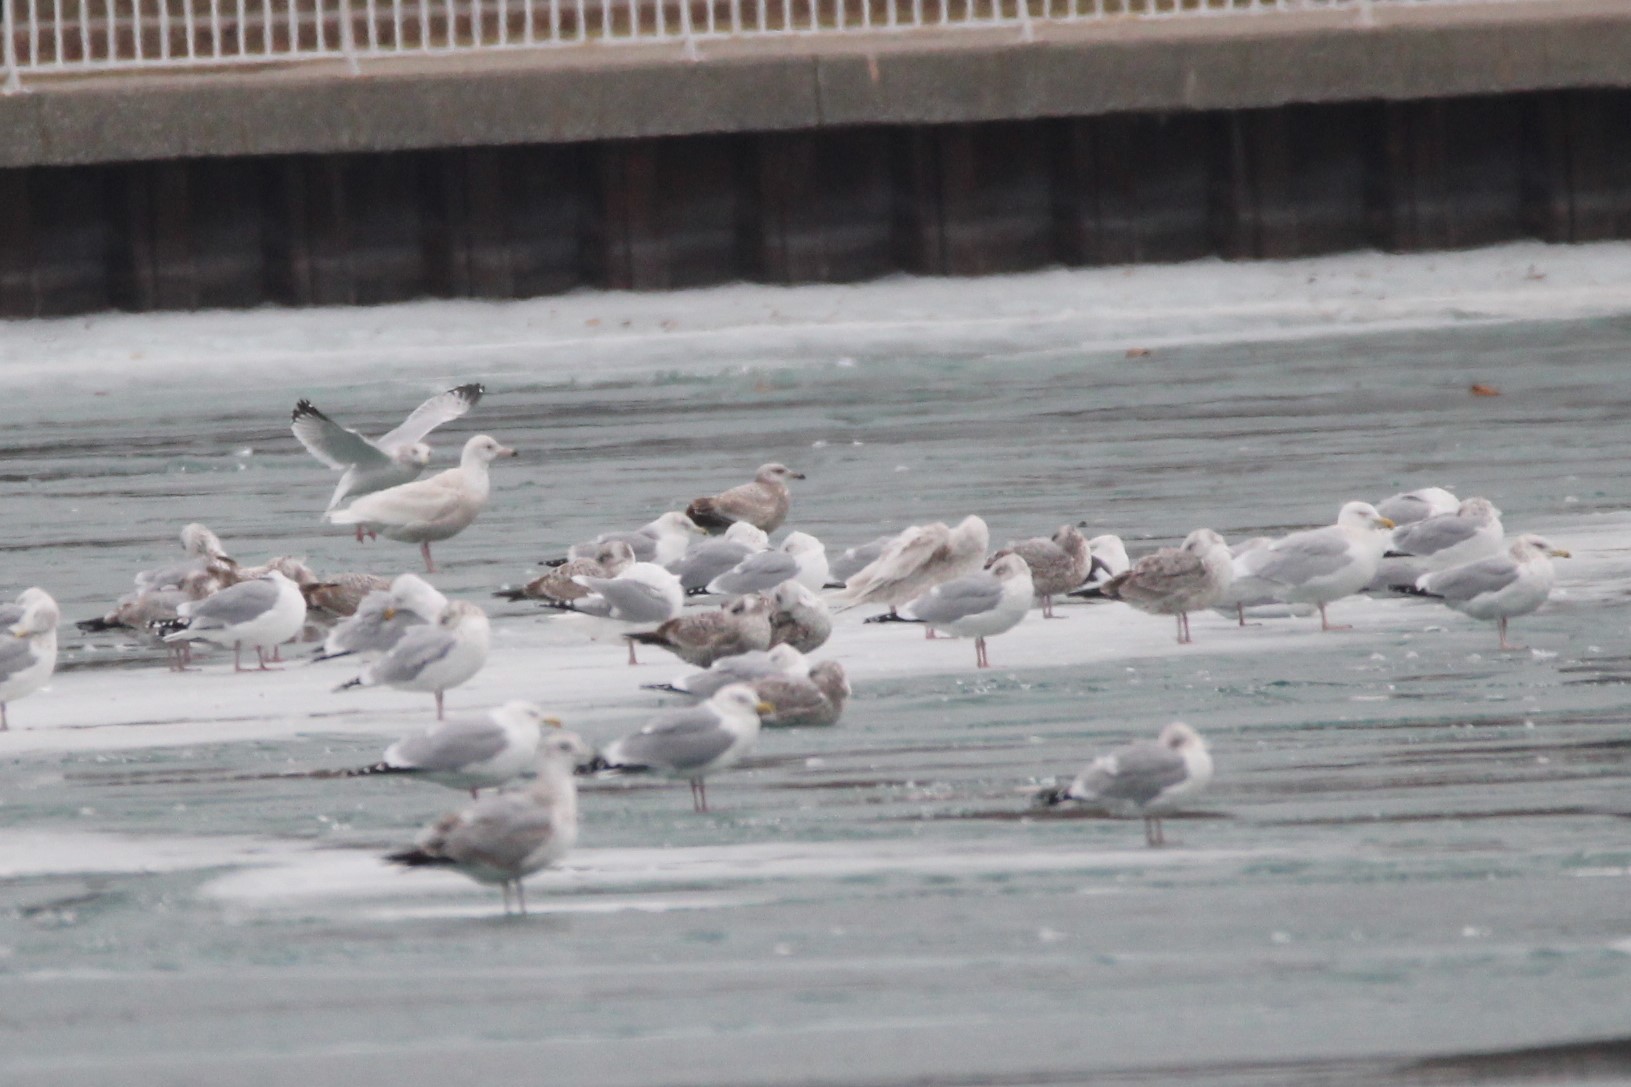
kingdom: Animalia
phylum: Chordata
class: Aves
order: Charadriiformes
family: Laridae
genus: Larus
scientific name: Larus hyperboreus
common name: Glaucous gull
